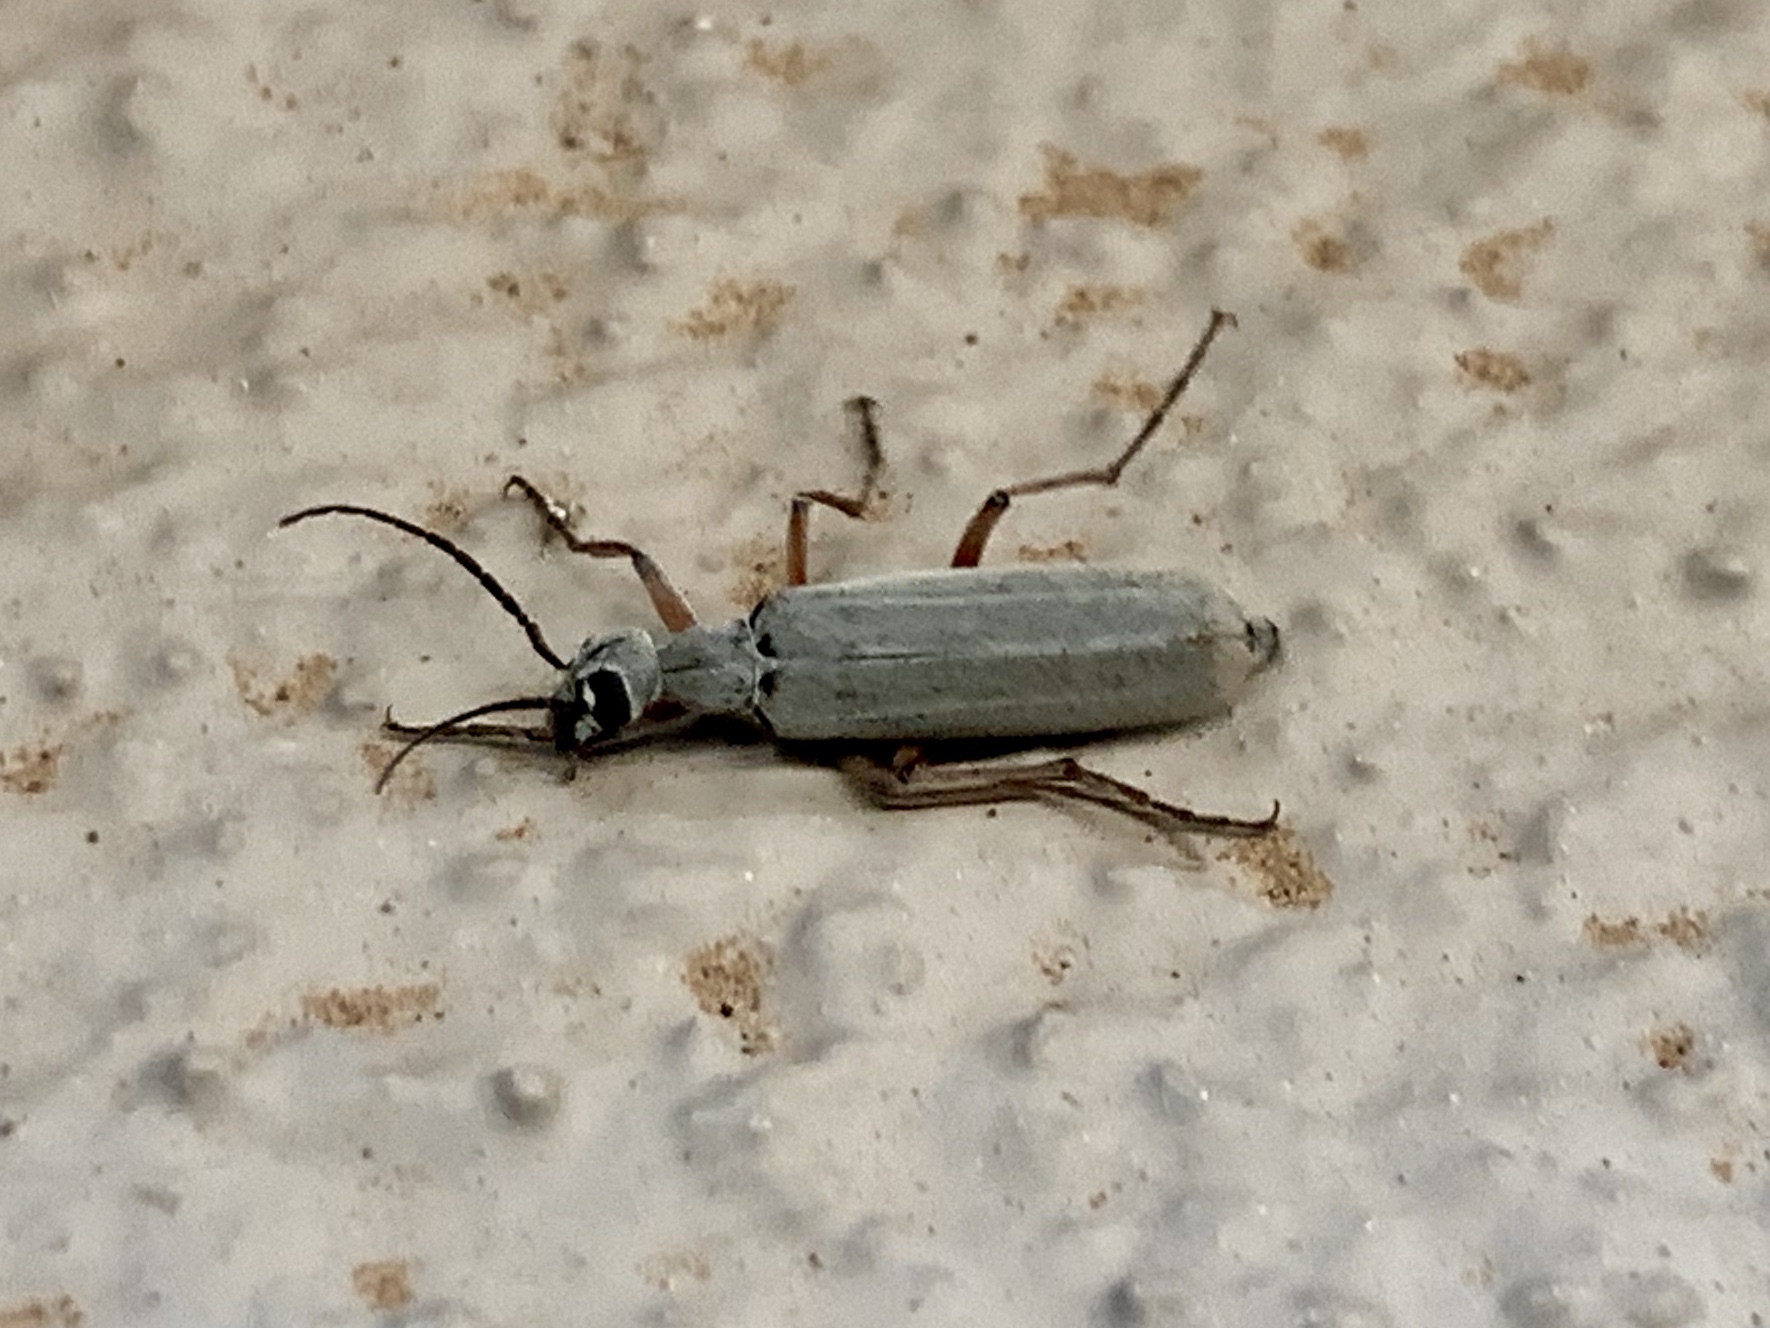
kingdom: Animalia
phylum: Arthropoda
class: Insecta
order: Coleoptera
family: Meloidae
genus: Epicauta
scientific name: Epicauta hirsutipubescens
